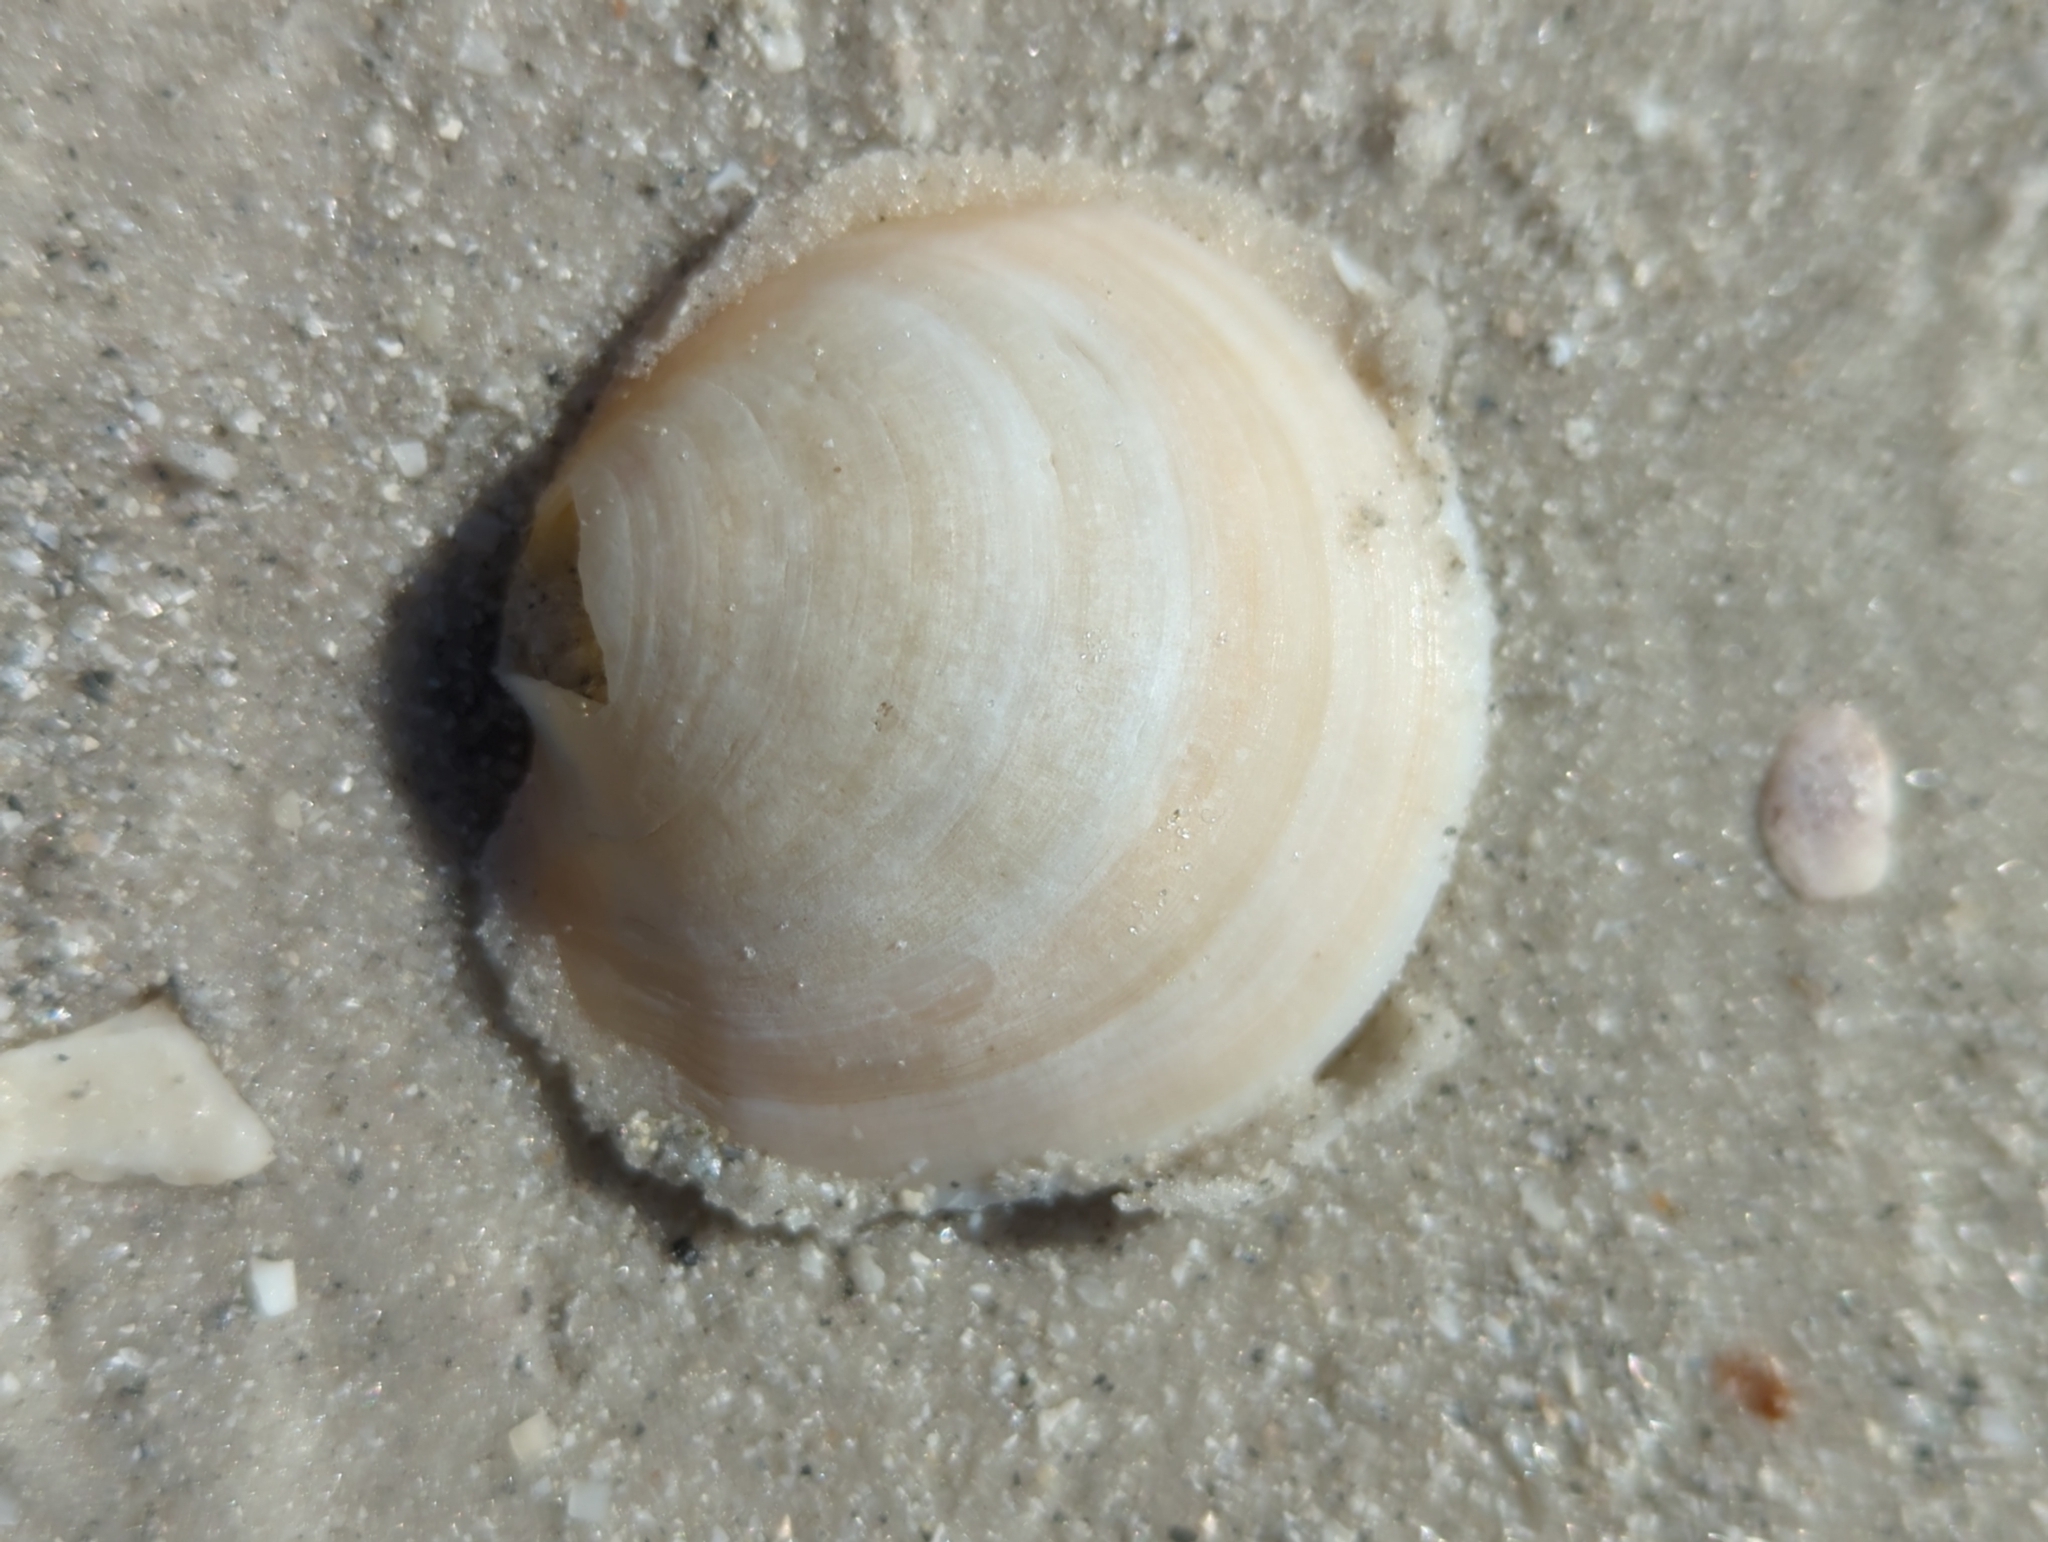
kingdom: Animalia
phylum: Mollusca
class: Bivalvia
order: Lucinida
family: Lucinidae
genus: Anodontia
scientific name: Anodontia alba
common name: Buttercup lucine
